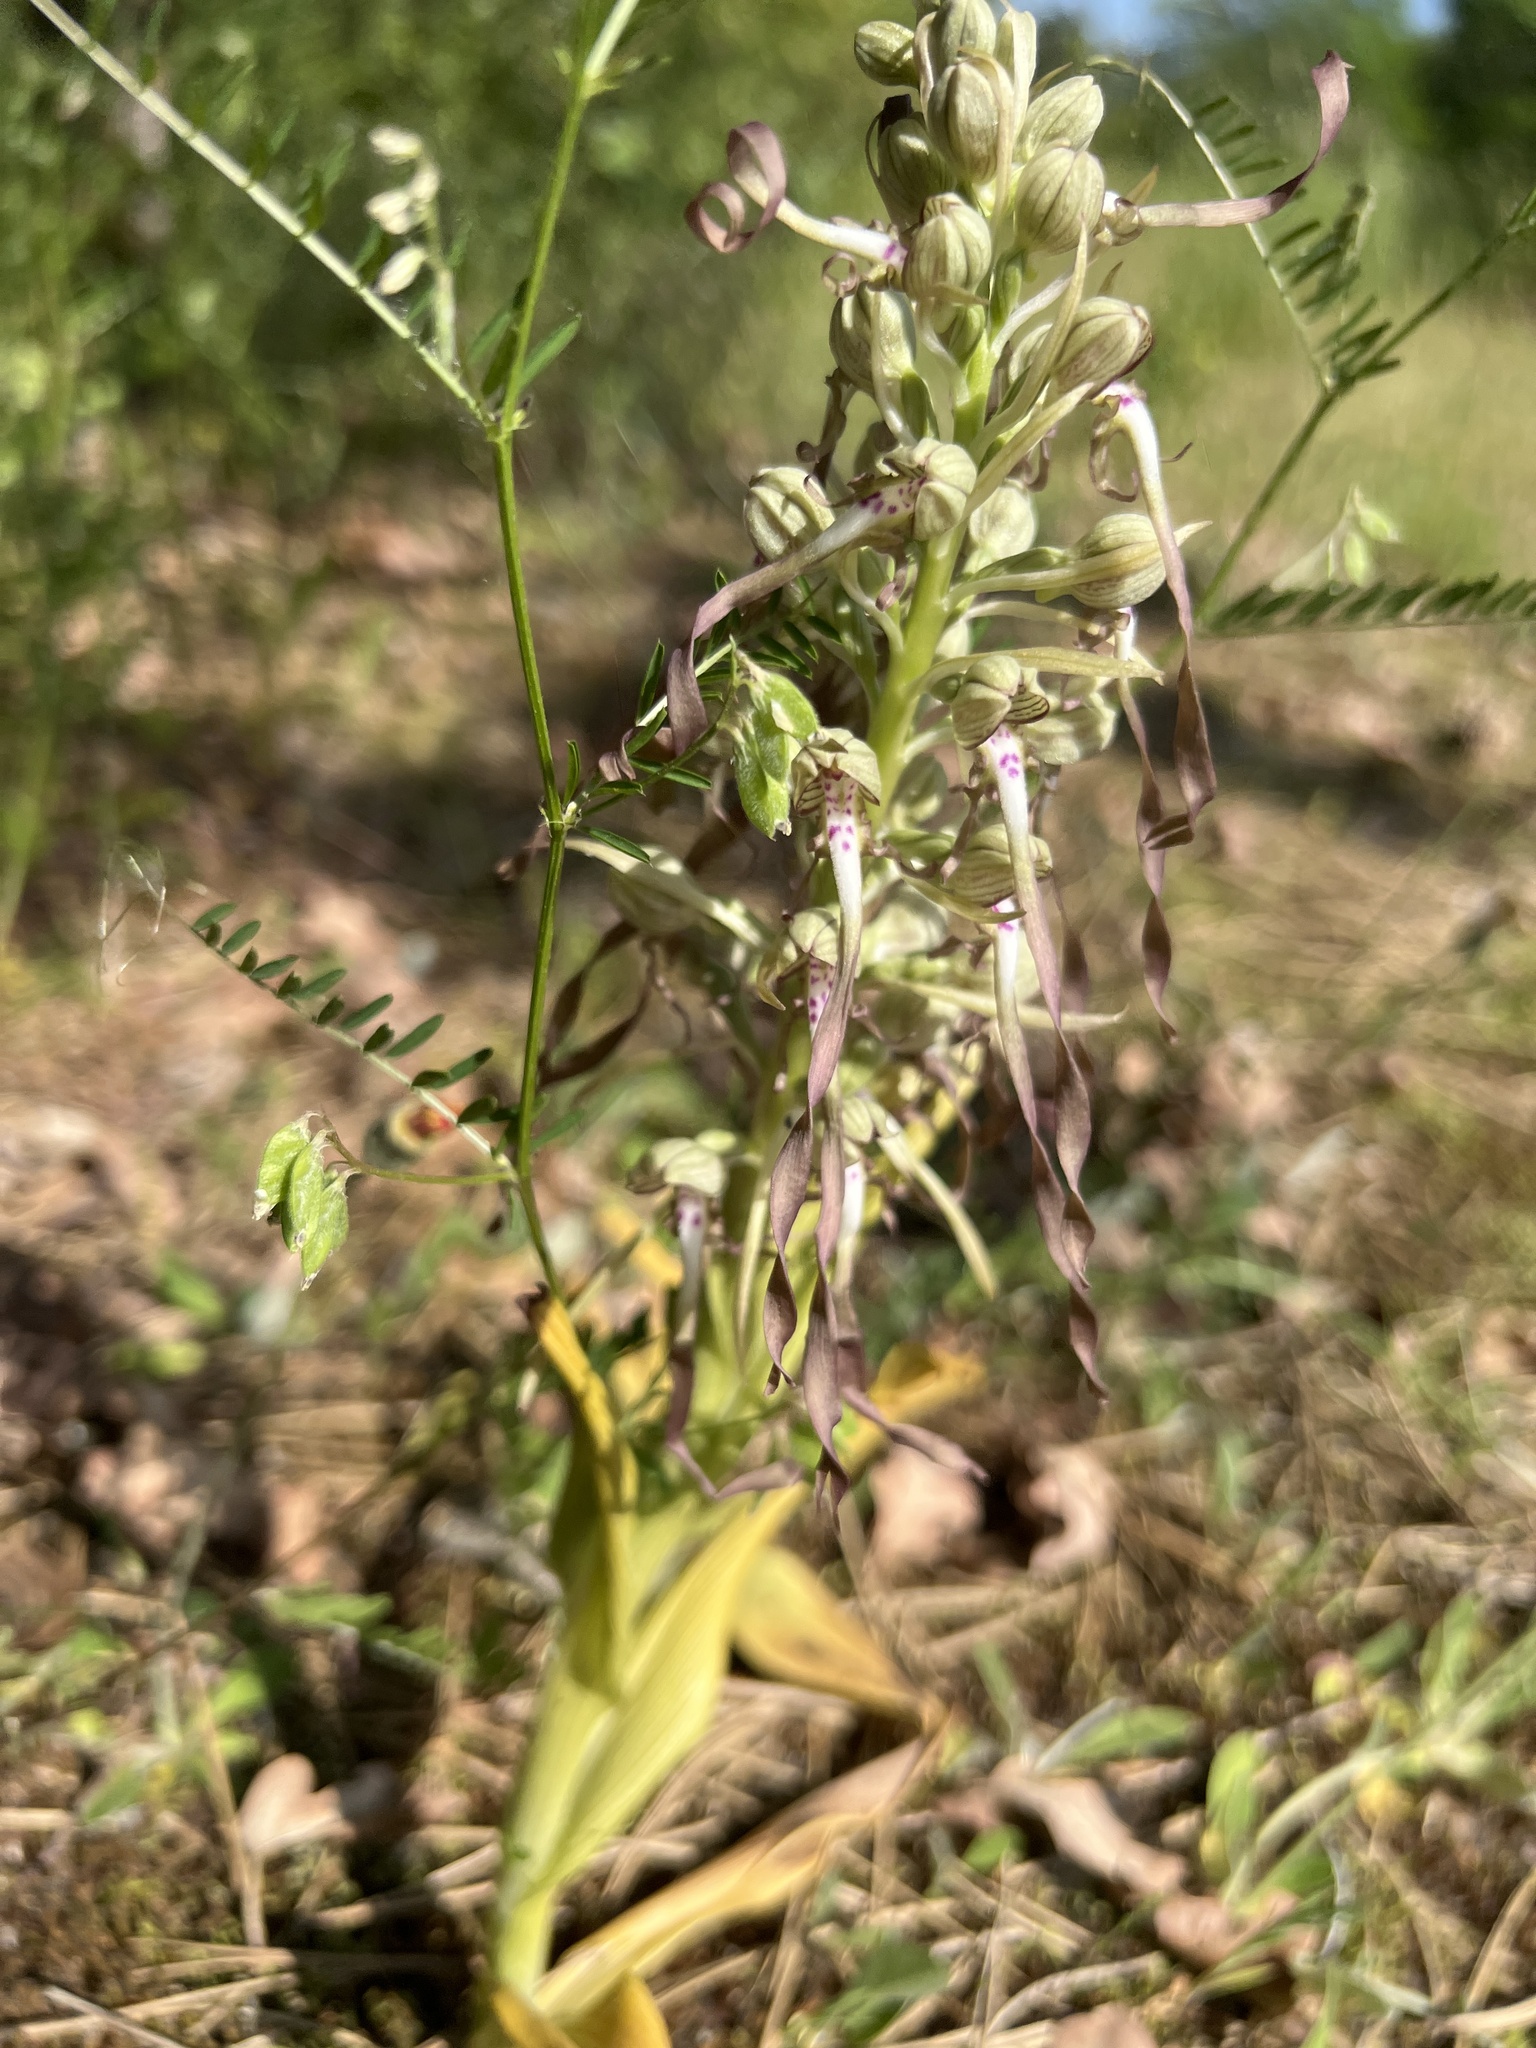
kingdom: Plantae
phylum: Tracheophyta
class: Liliopsida
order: Asparagales
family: Orchidaceae
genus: Himantoglossum
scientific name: Himantoglossum hircinum
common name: Lizard orchid
